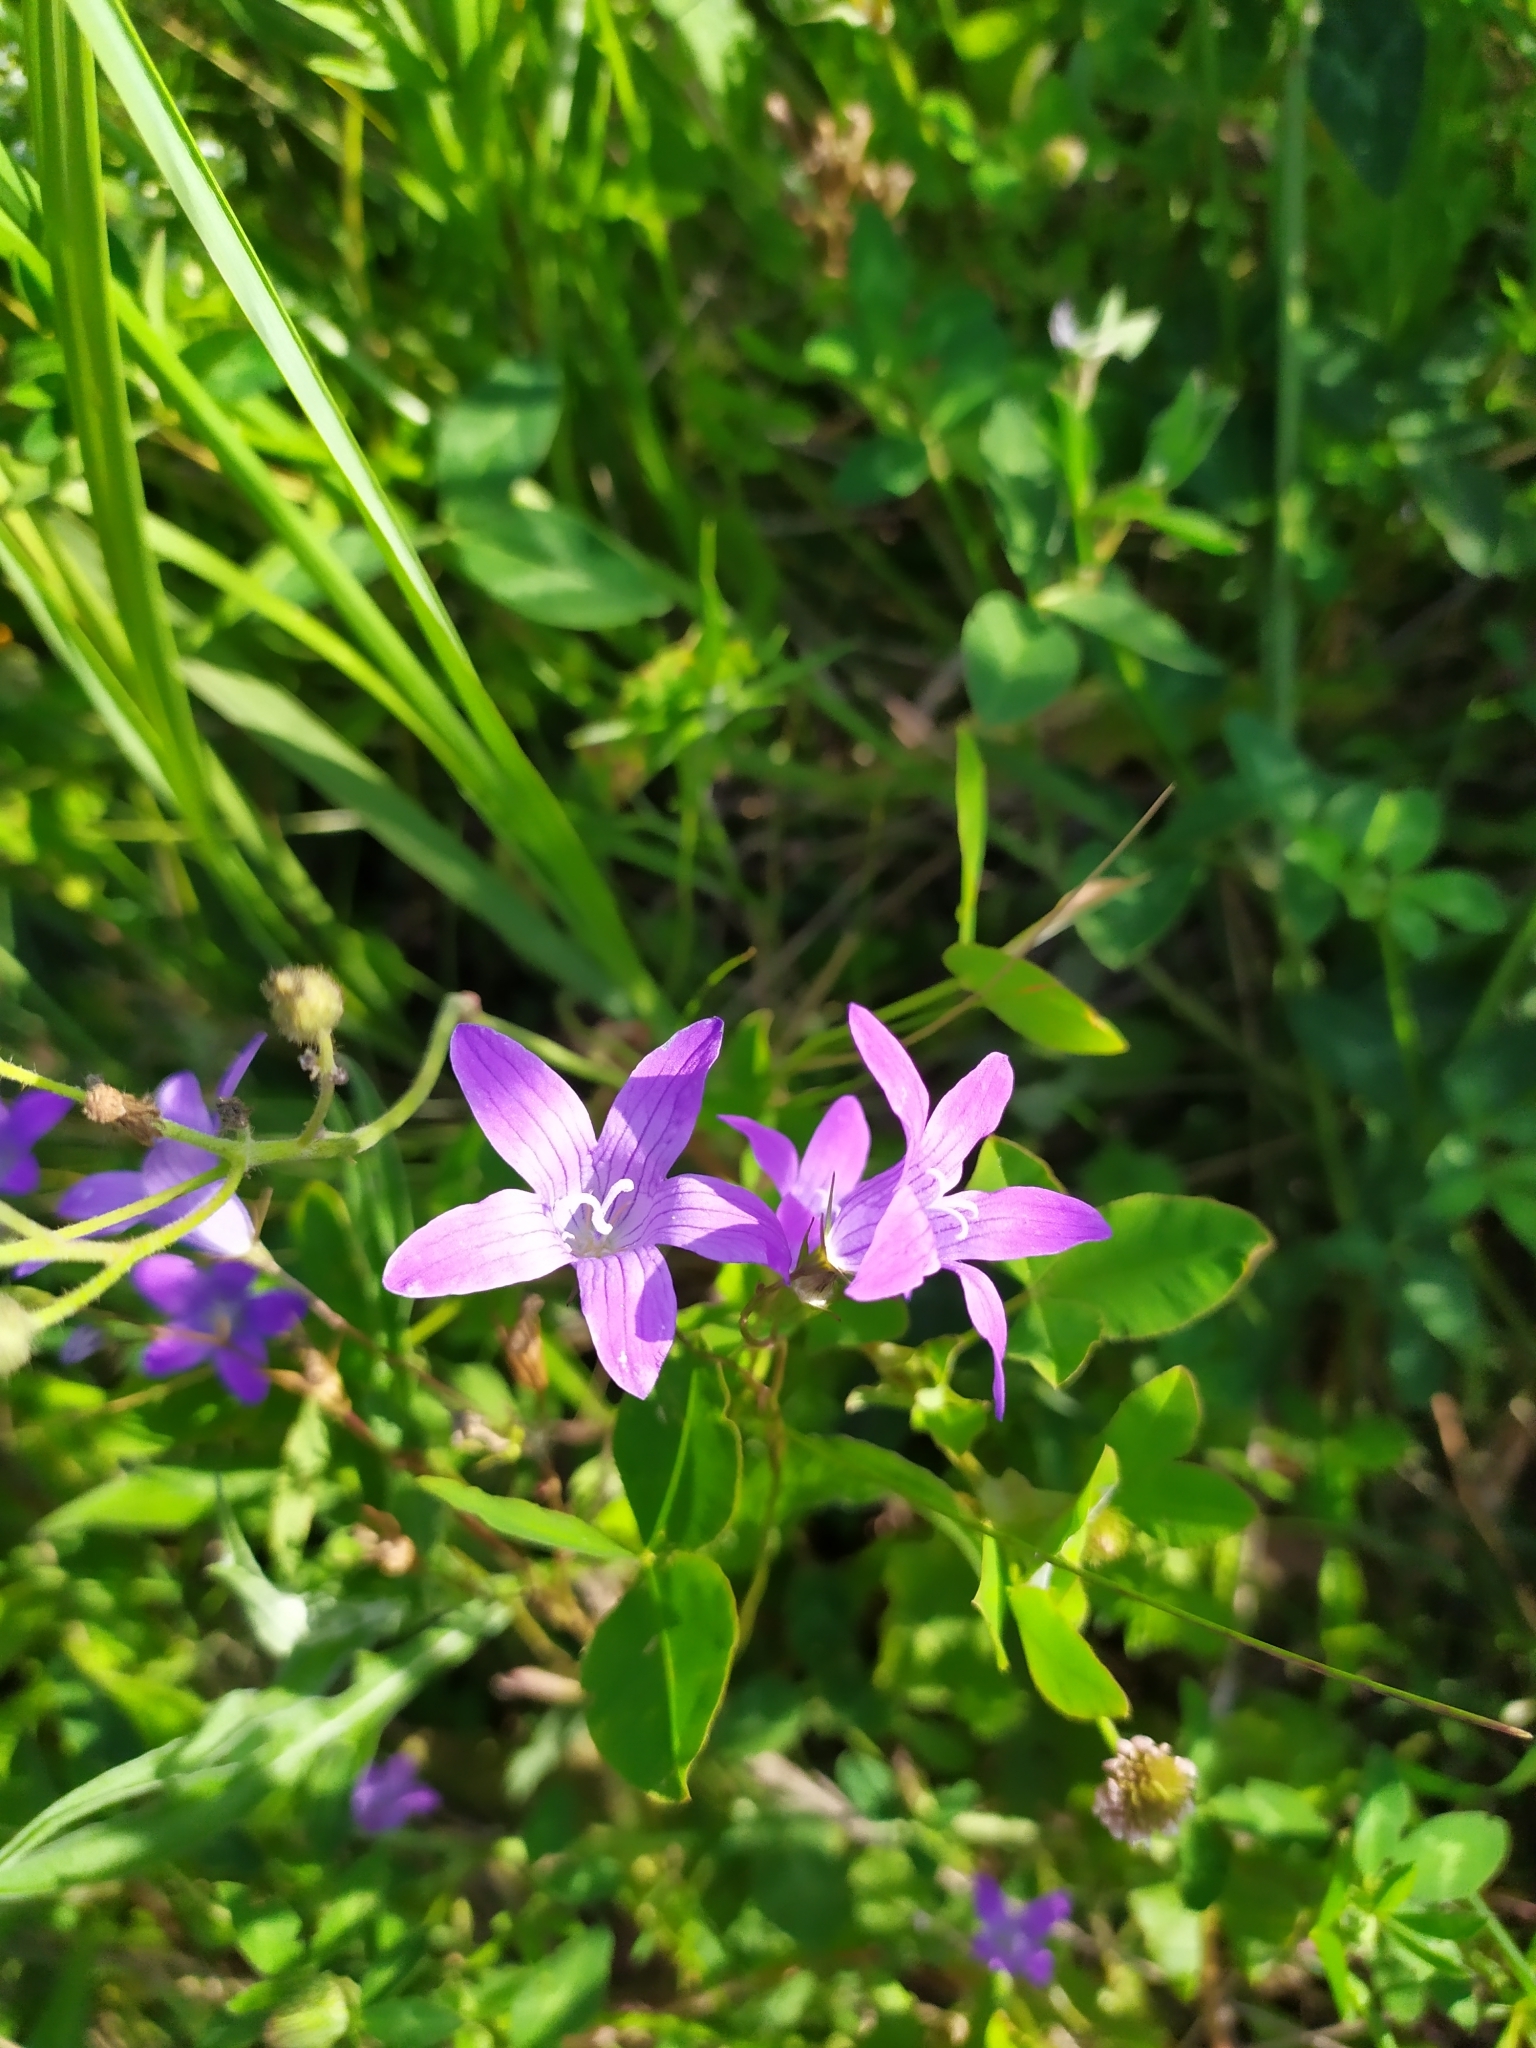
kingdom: Plantae
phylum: Tracheophyta
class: Magnoliopsida
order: Asterales
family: Campanulaceae
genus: Campanula
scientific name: Campanula patula
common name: Spreading bellflower
